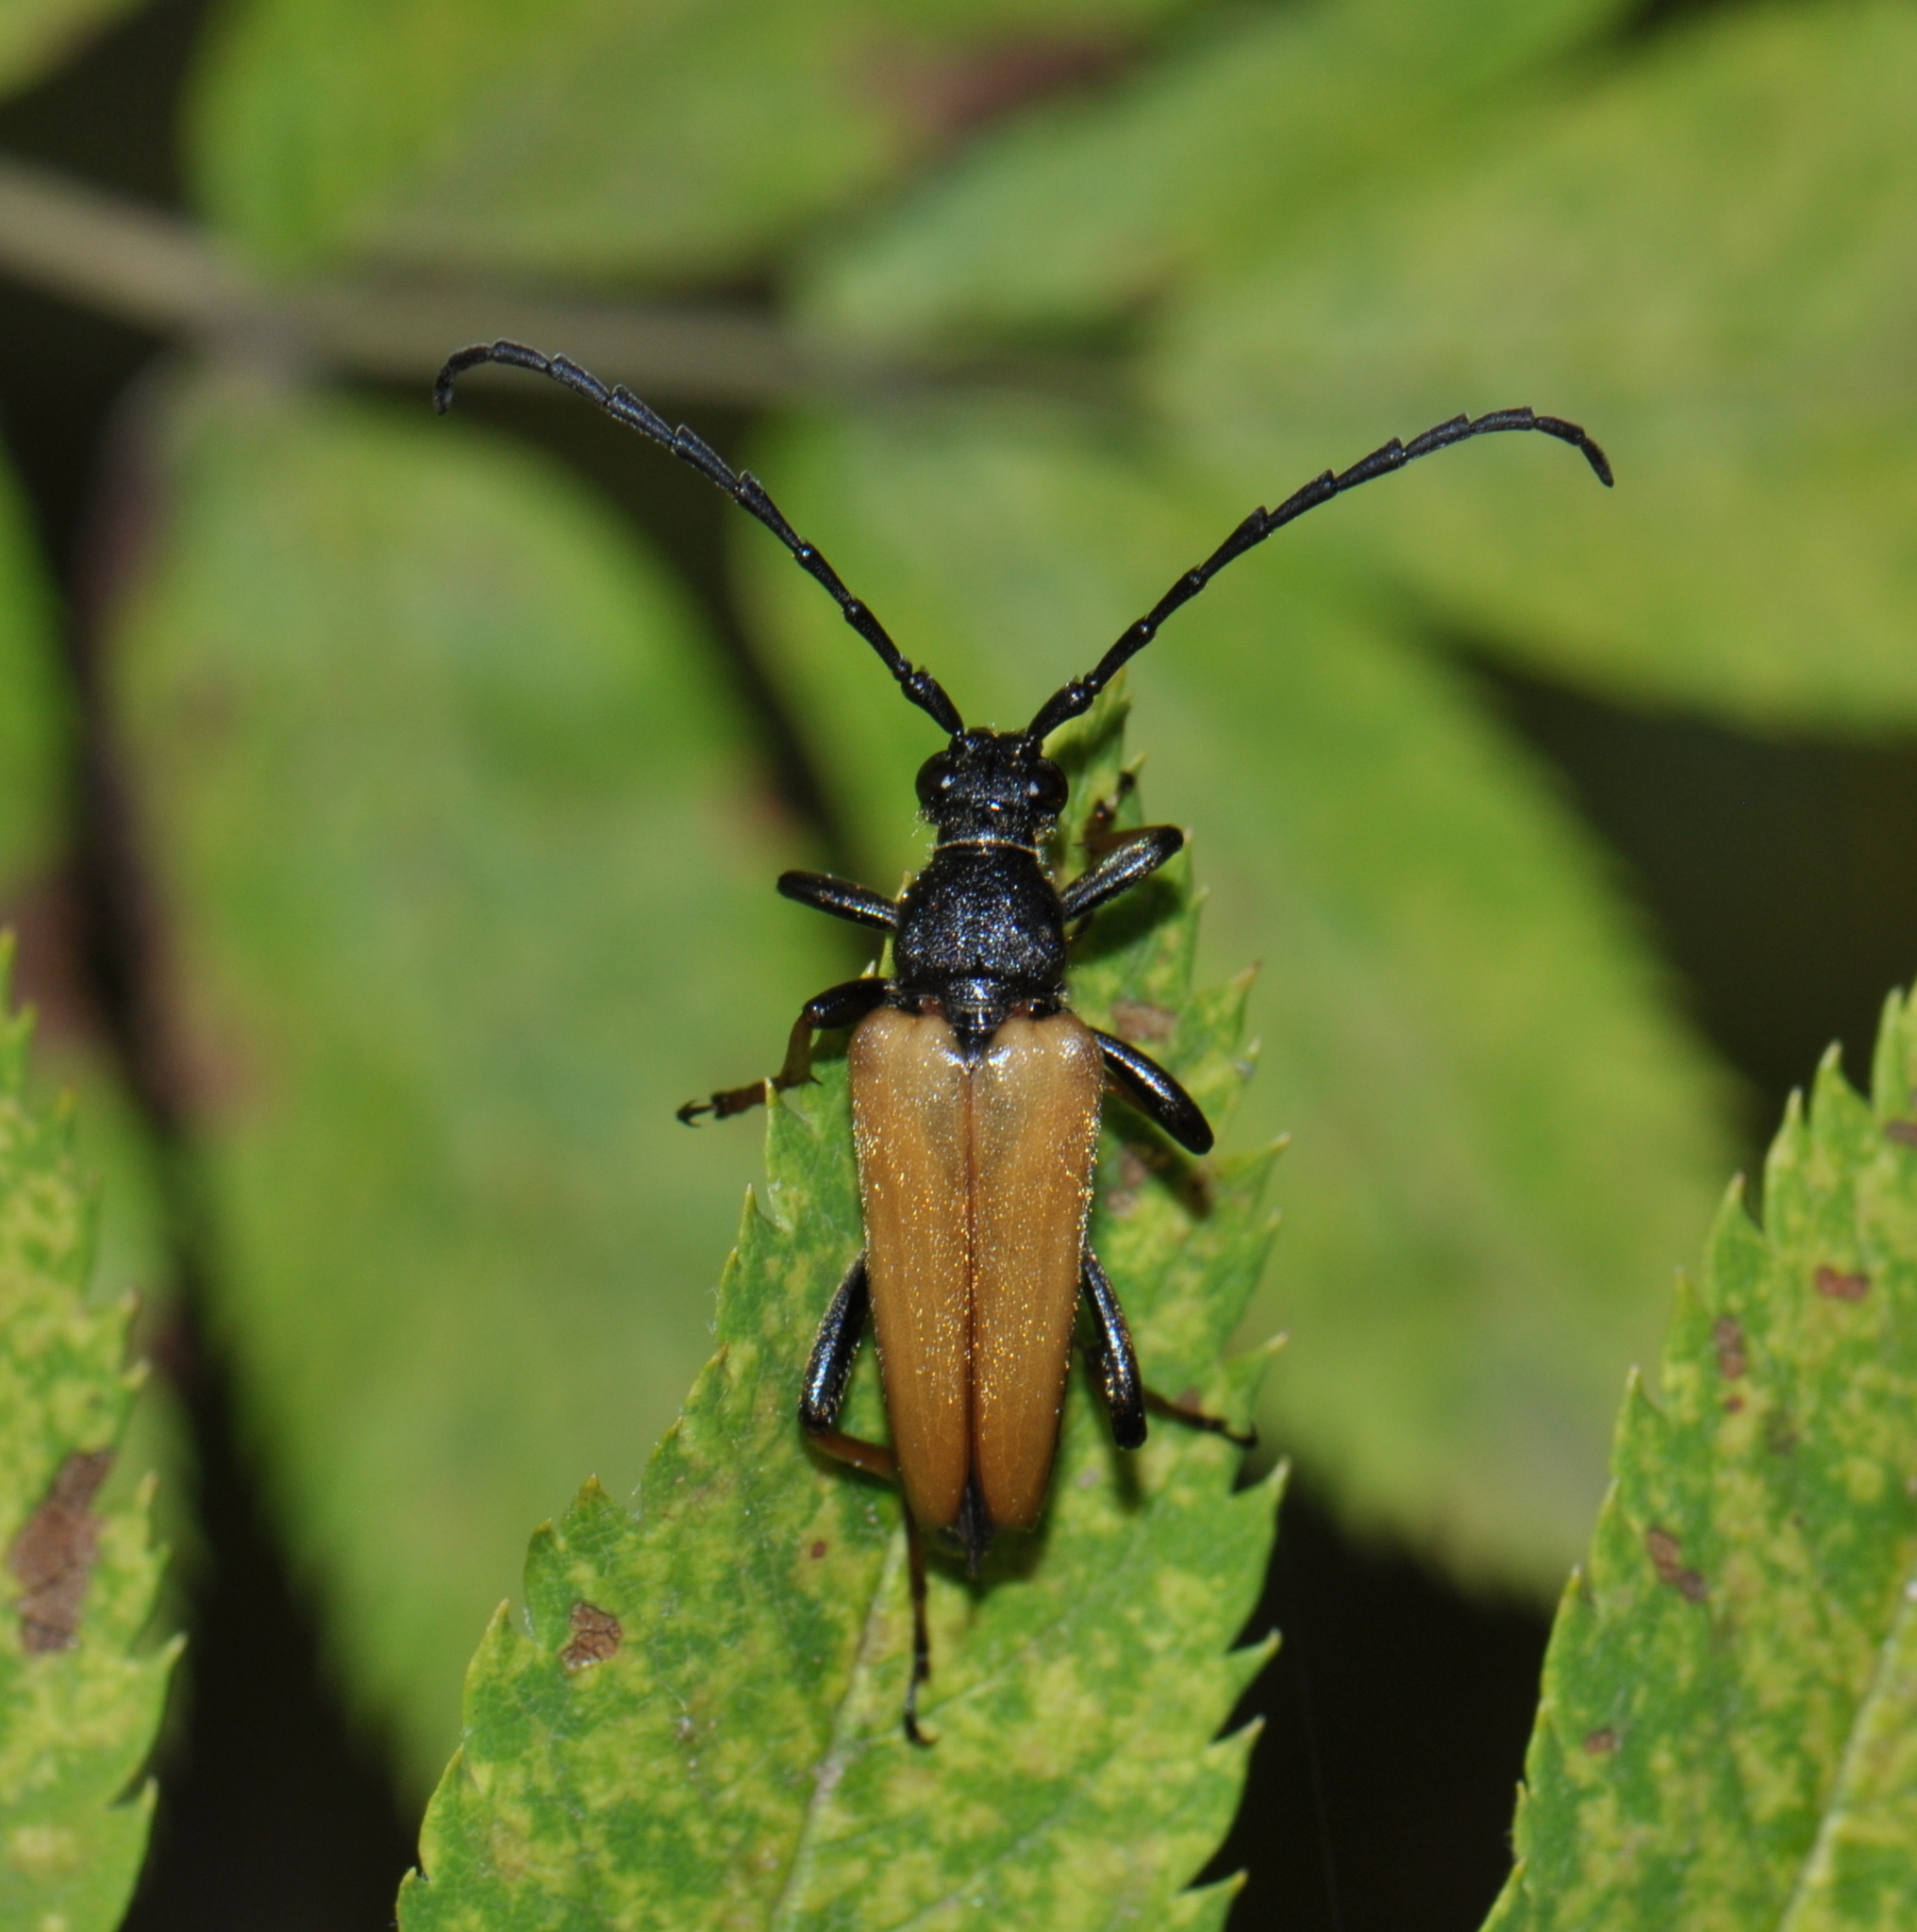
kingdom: Animalia
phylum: Arthropoda
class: Insecta
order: Coleoptera
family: Cerambycidae
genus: Stictoleptura
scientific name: Stictoleptura rubra
